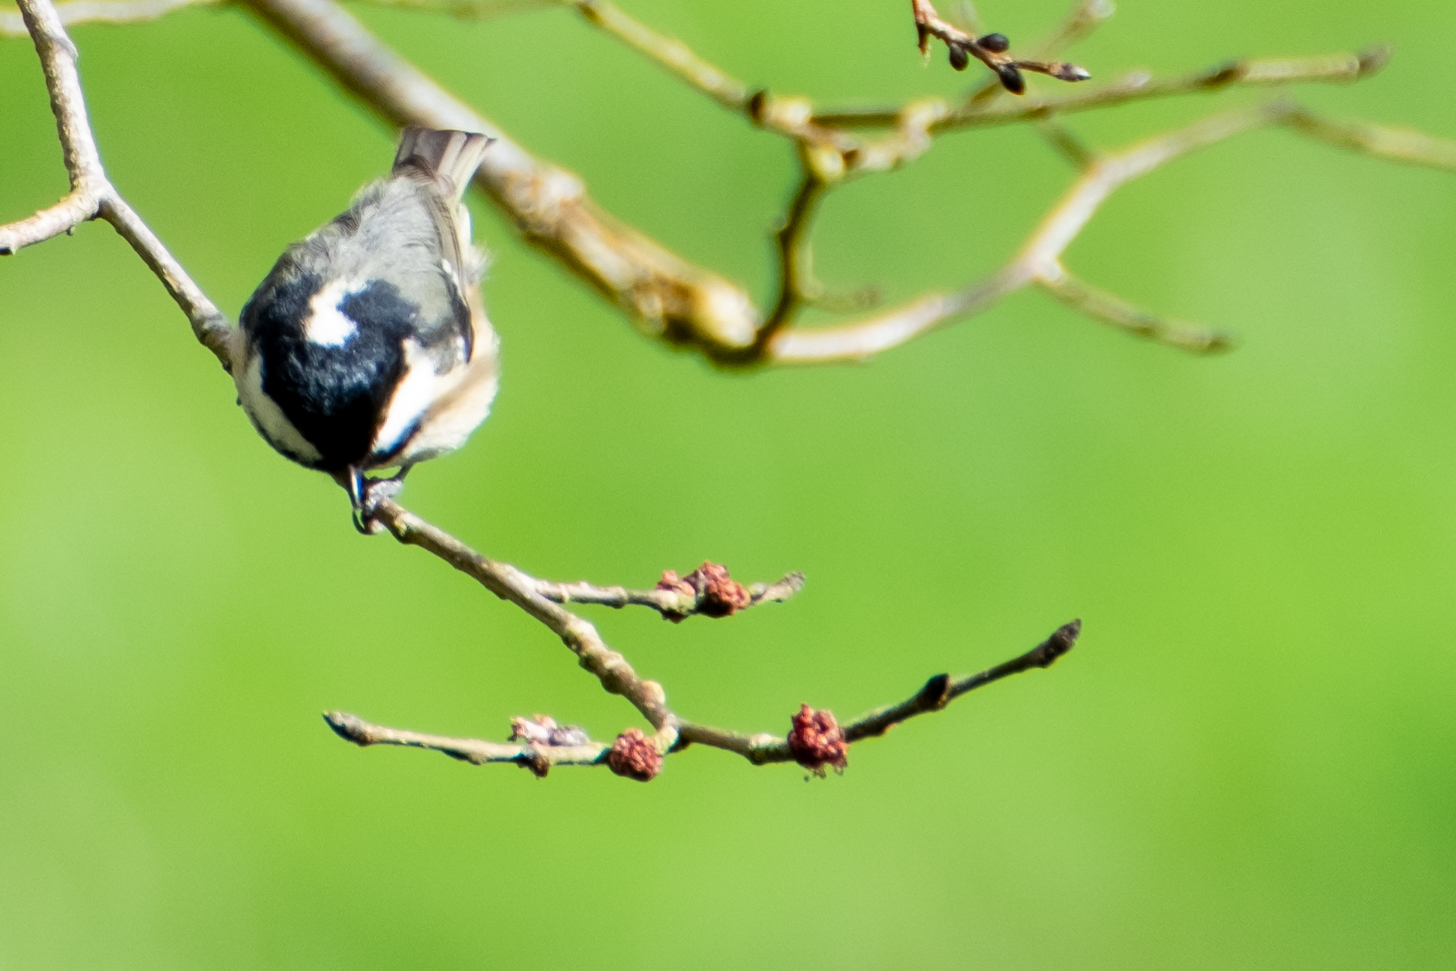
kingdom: Animalia
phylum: Chordata
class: Aves
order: Passeriformes
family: Paridae
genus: Periparus
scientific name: Periparus ater
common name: Coal tit
